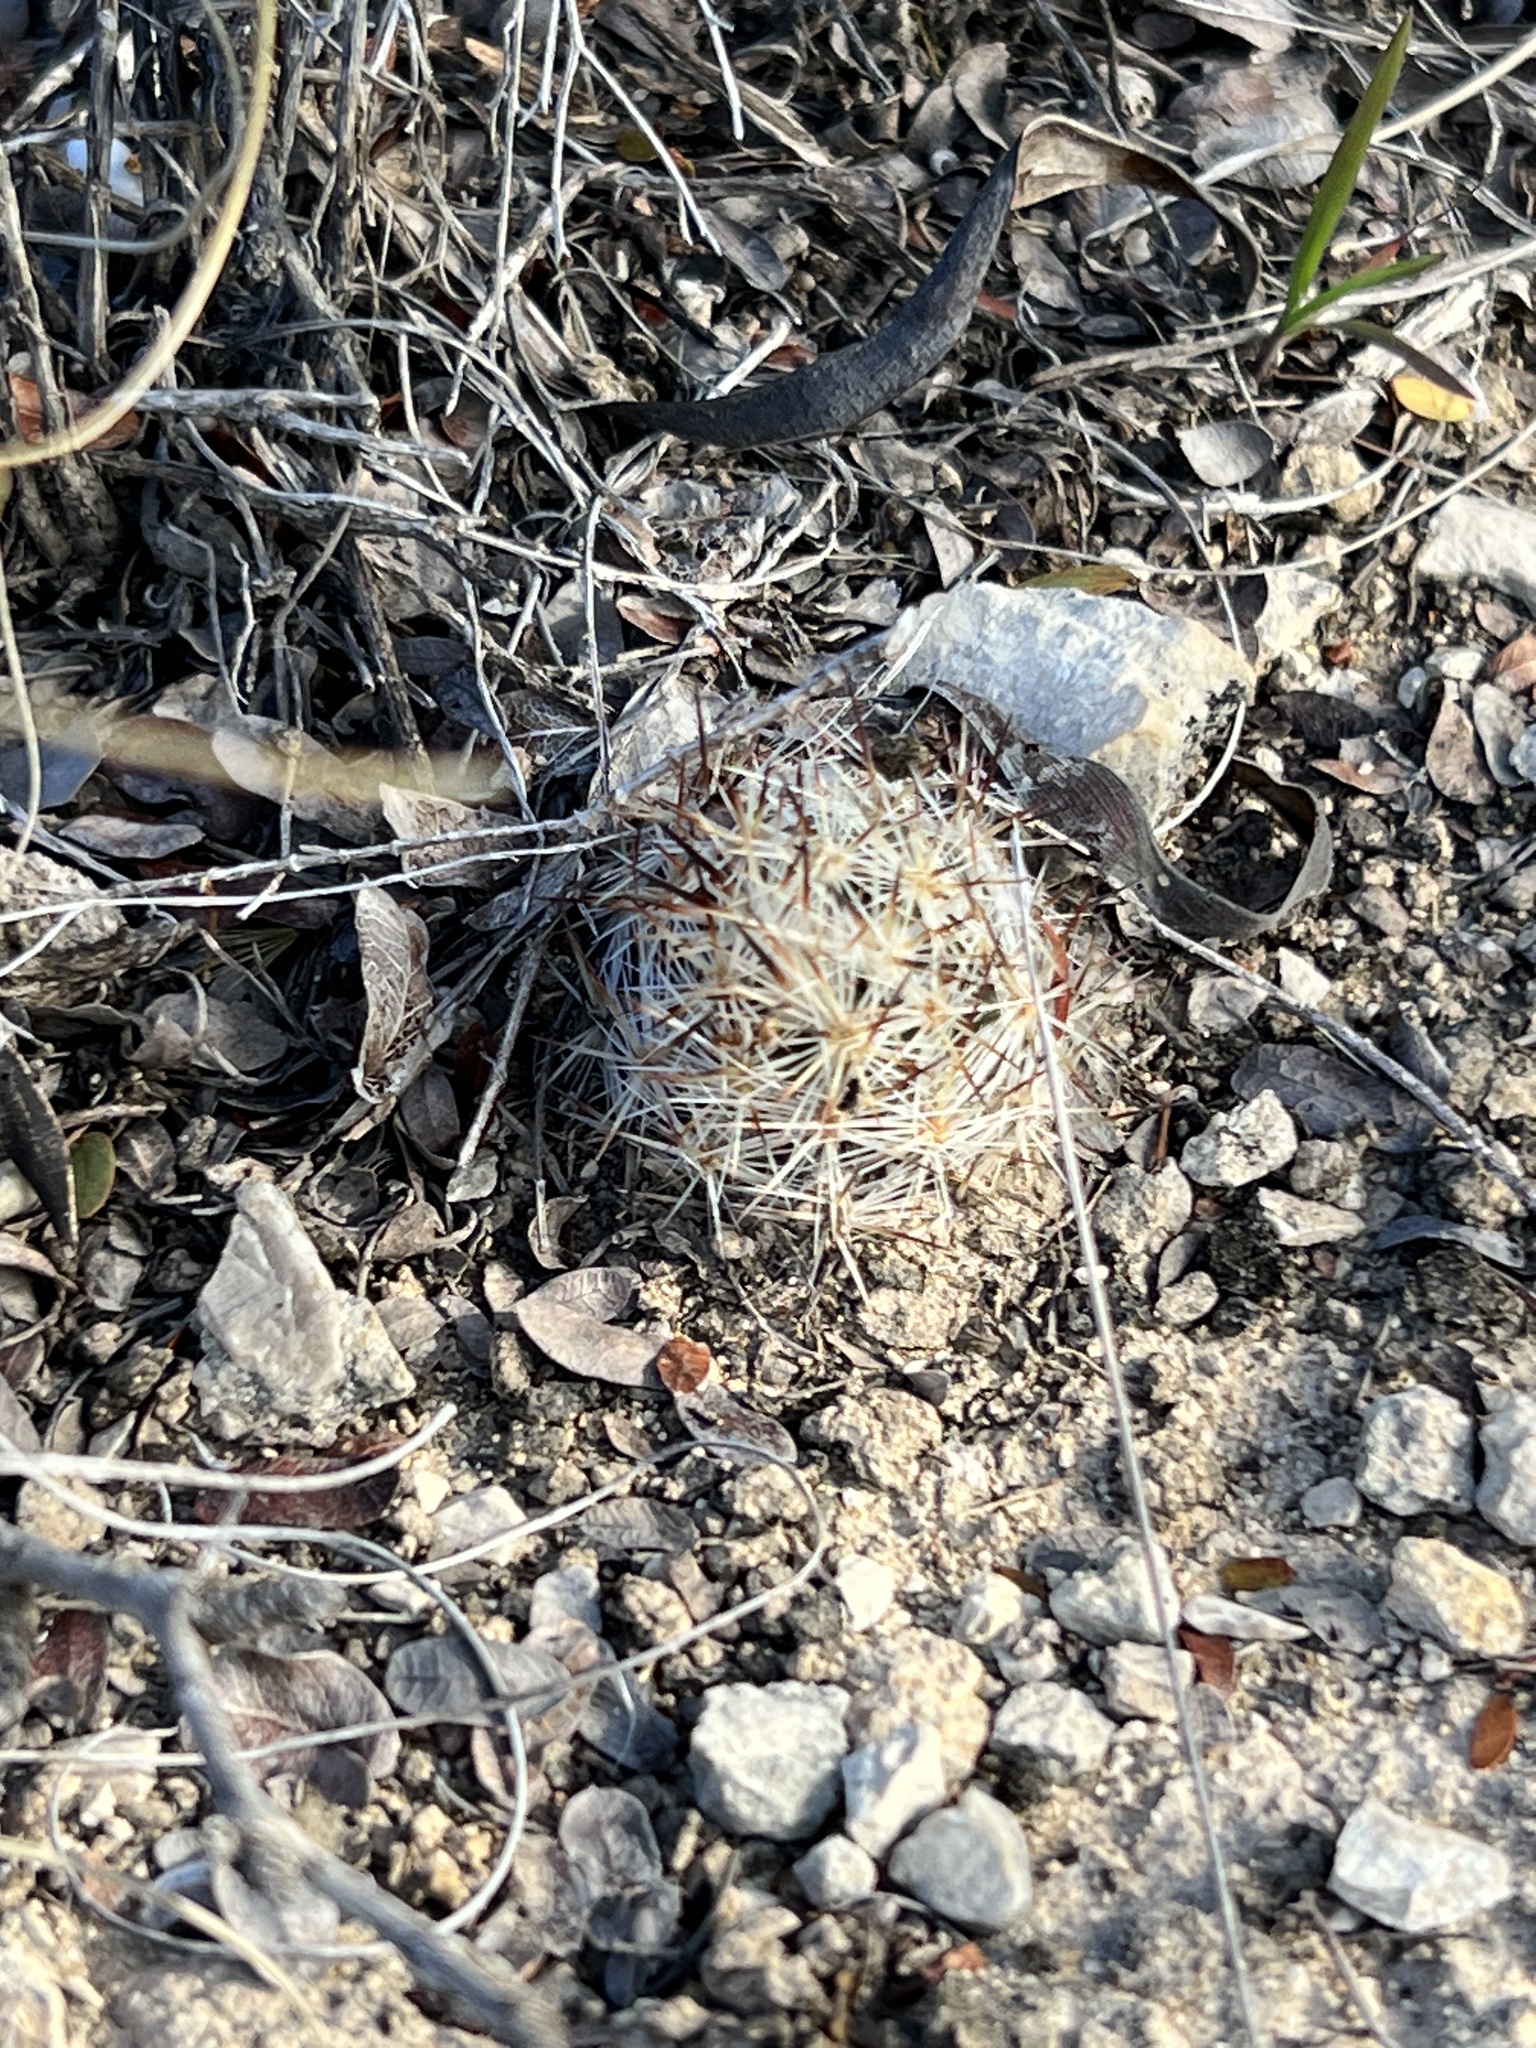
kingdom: Plantae
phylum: Tracheophyta
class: Magnoliopsida
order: Caryophyllales
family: Cactaceae
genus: Pelecyphora
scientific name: Pelecyphora emskoetteriana
